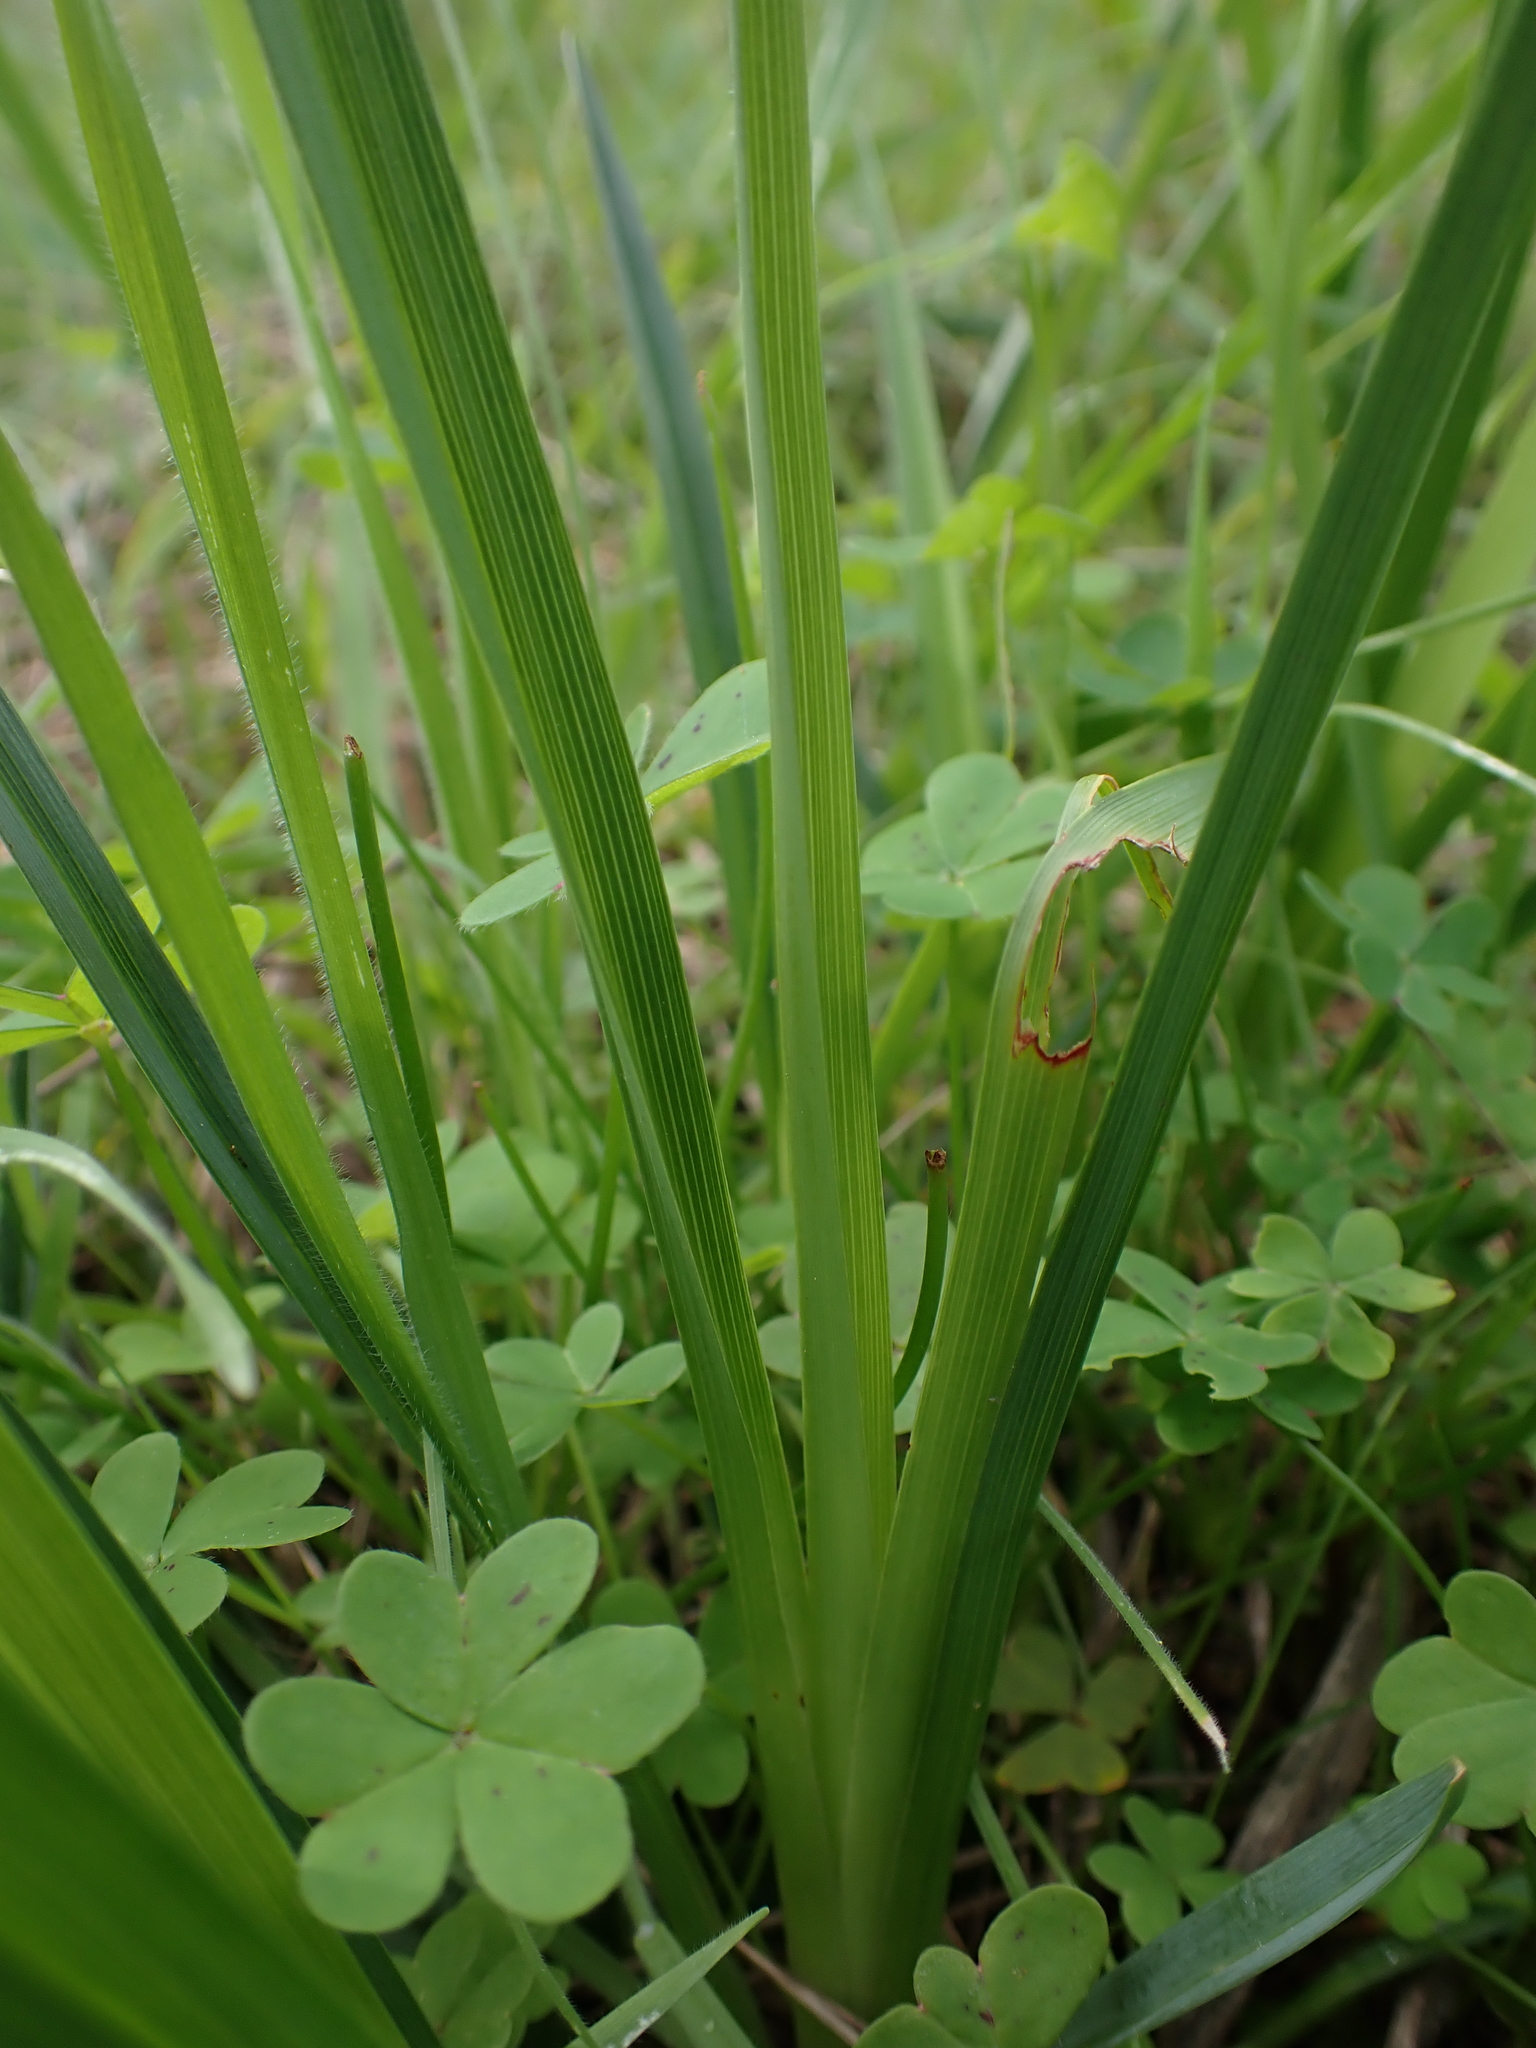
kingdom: Plantae
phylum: Tracheophyta
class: Liliopsida
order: Asparagales
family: Asphodelaceae
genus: Dianella
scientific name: Dianella amoena
